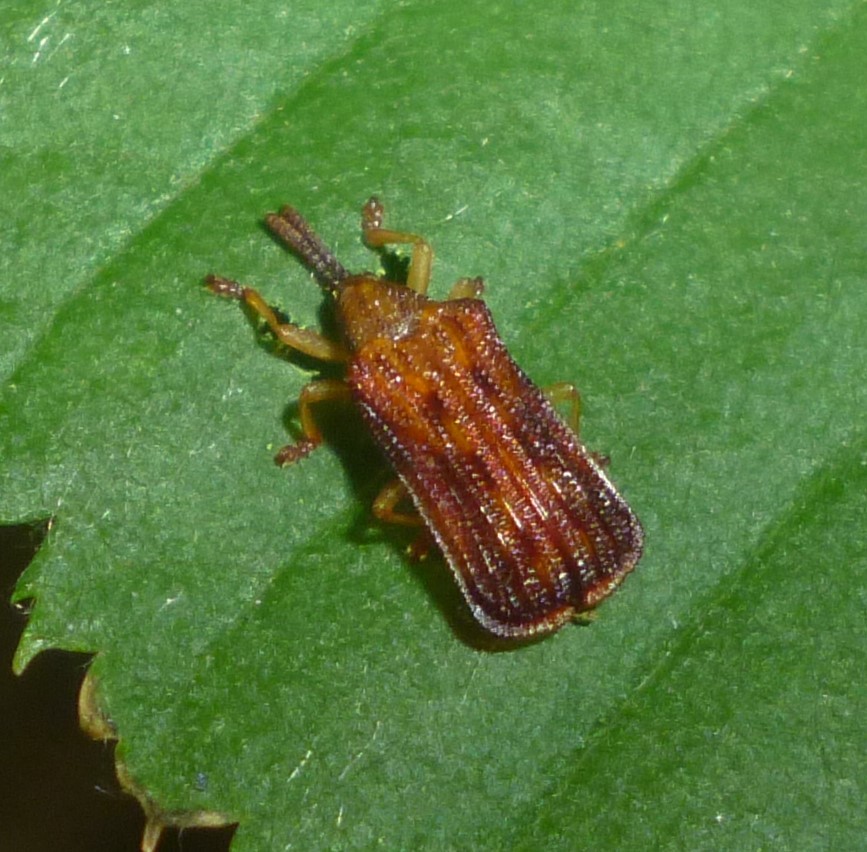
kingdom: Animalia
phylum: Arthropoda
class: Insecta
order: Coleoptera
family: Chrysomelidae
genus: Baliosus
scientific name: Baliosus nervosus
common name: Basswood leaf miner
